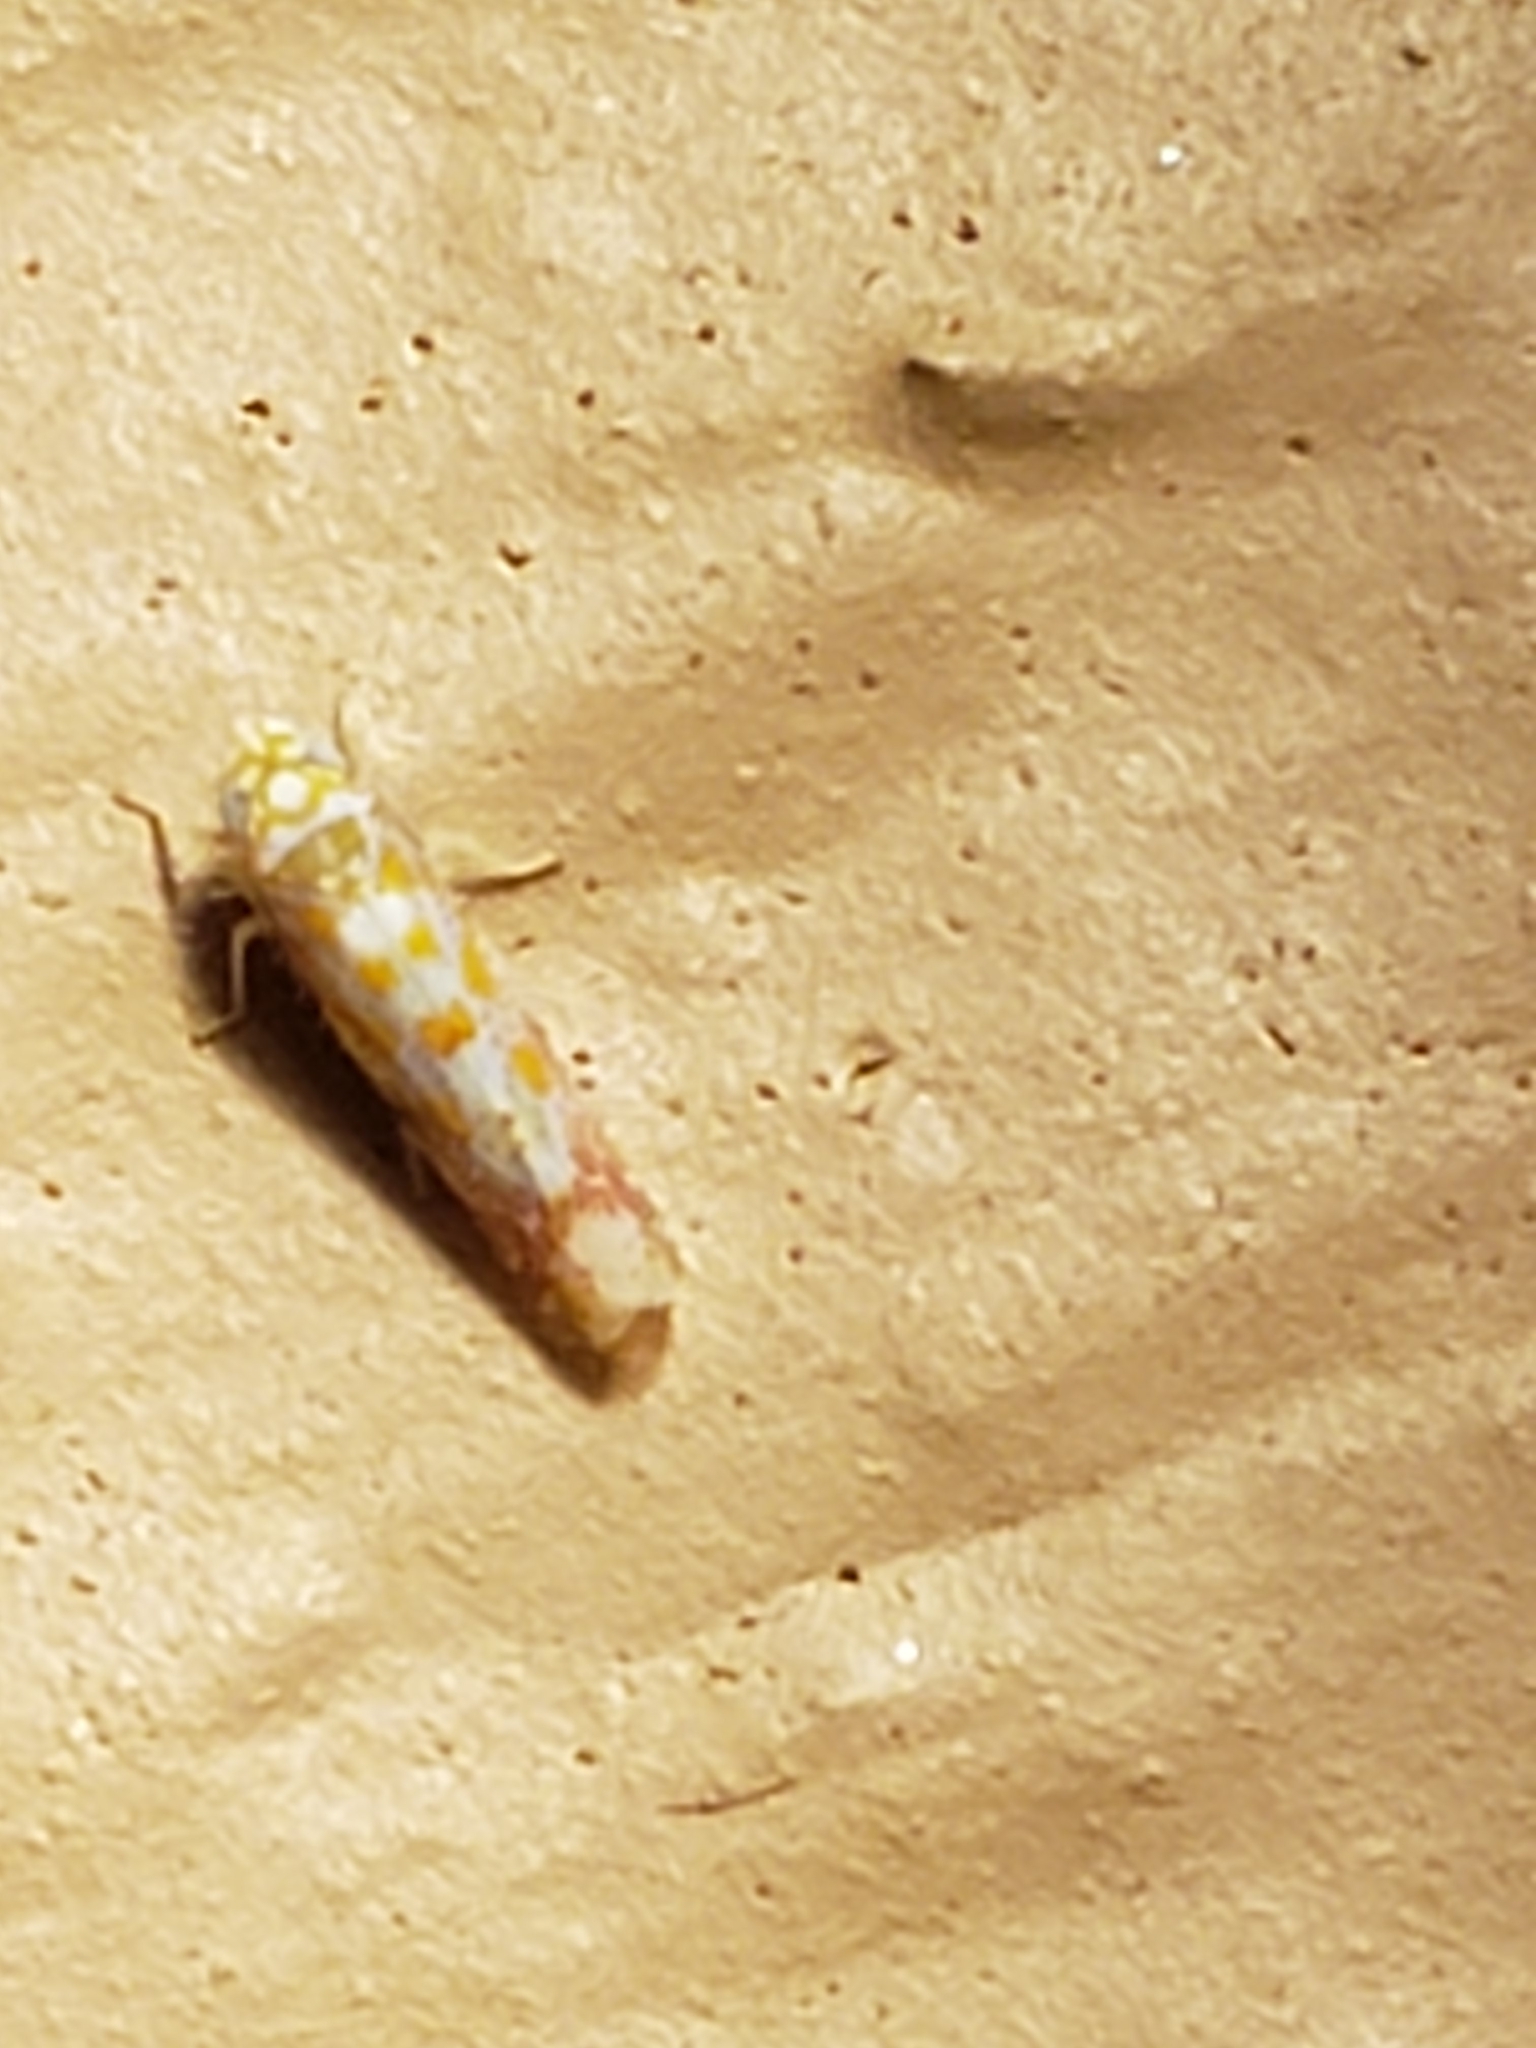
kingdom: Animalia
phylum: Arthropoda
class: Insecta
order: Hemiptera
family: Cicadellidae
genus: Dikrella
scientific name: Dikrella maculata
